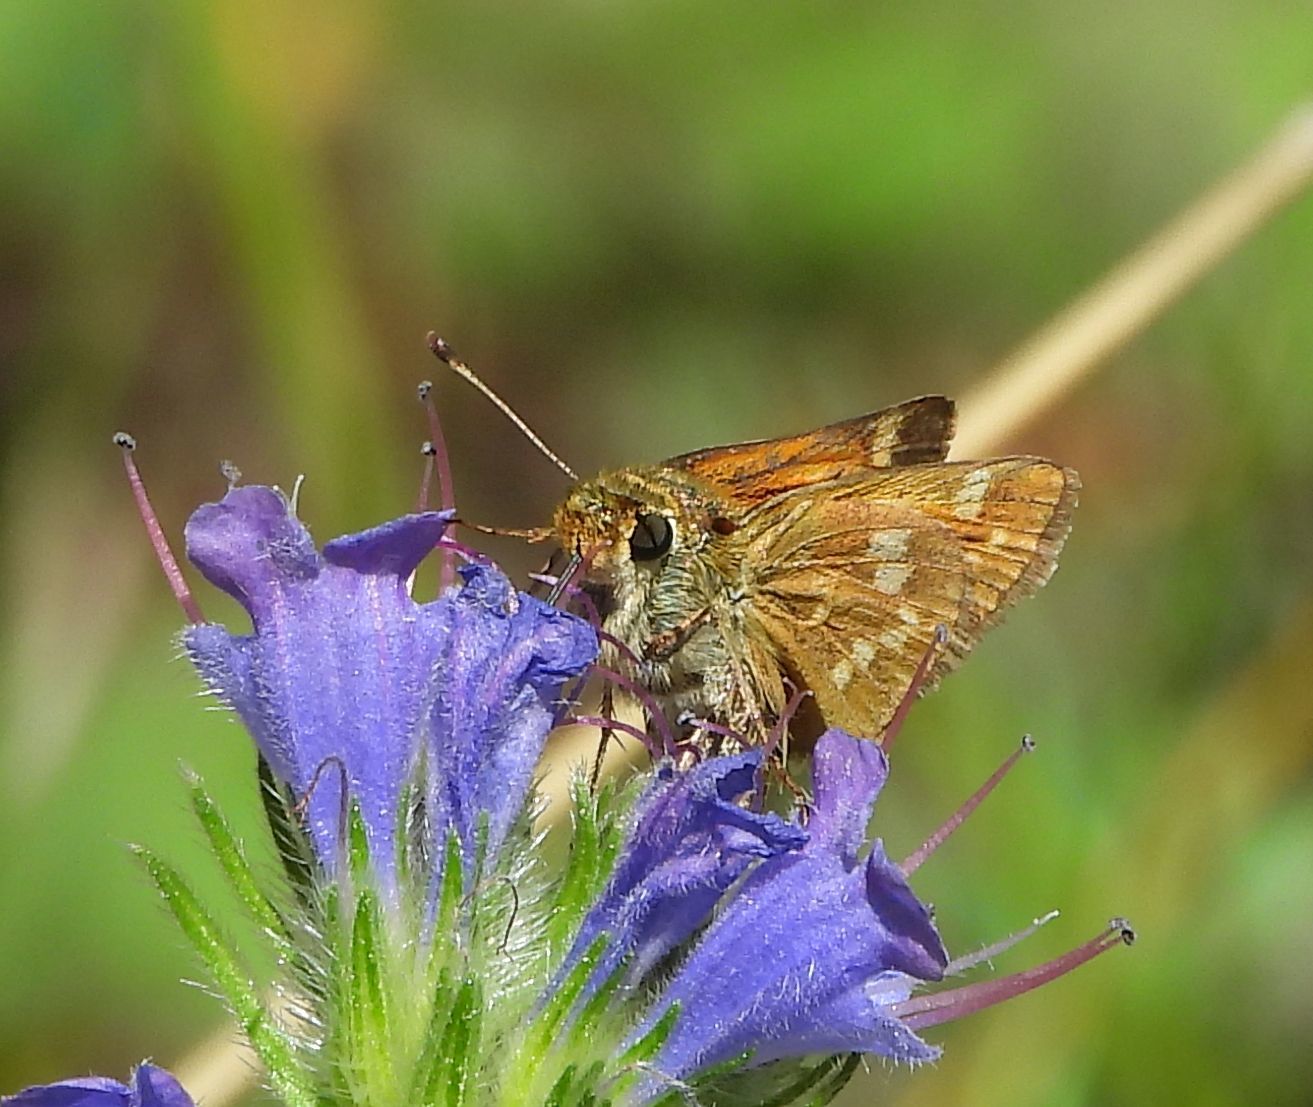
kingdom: Animalia
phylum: Arthropoda
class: Insecta
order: Lepidoptera
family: Hesperiidae
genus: Hesperia
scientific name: Hesperia sassacus
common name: Indian skipper
